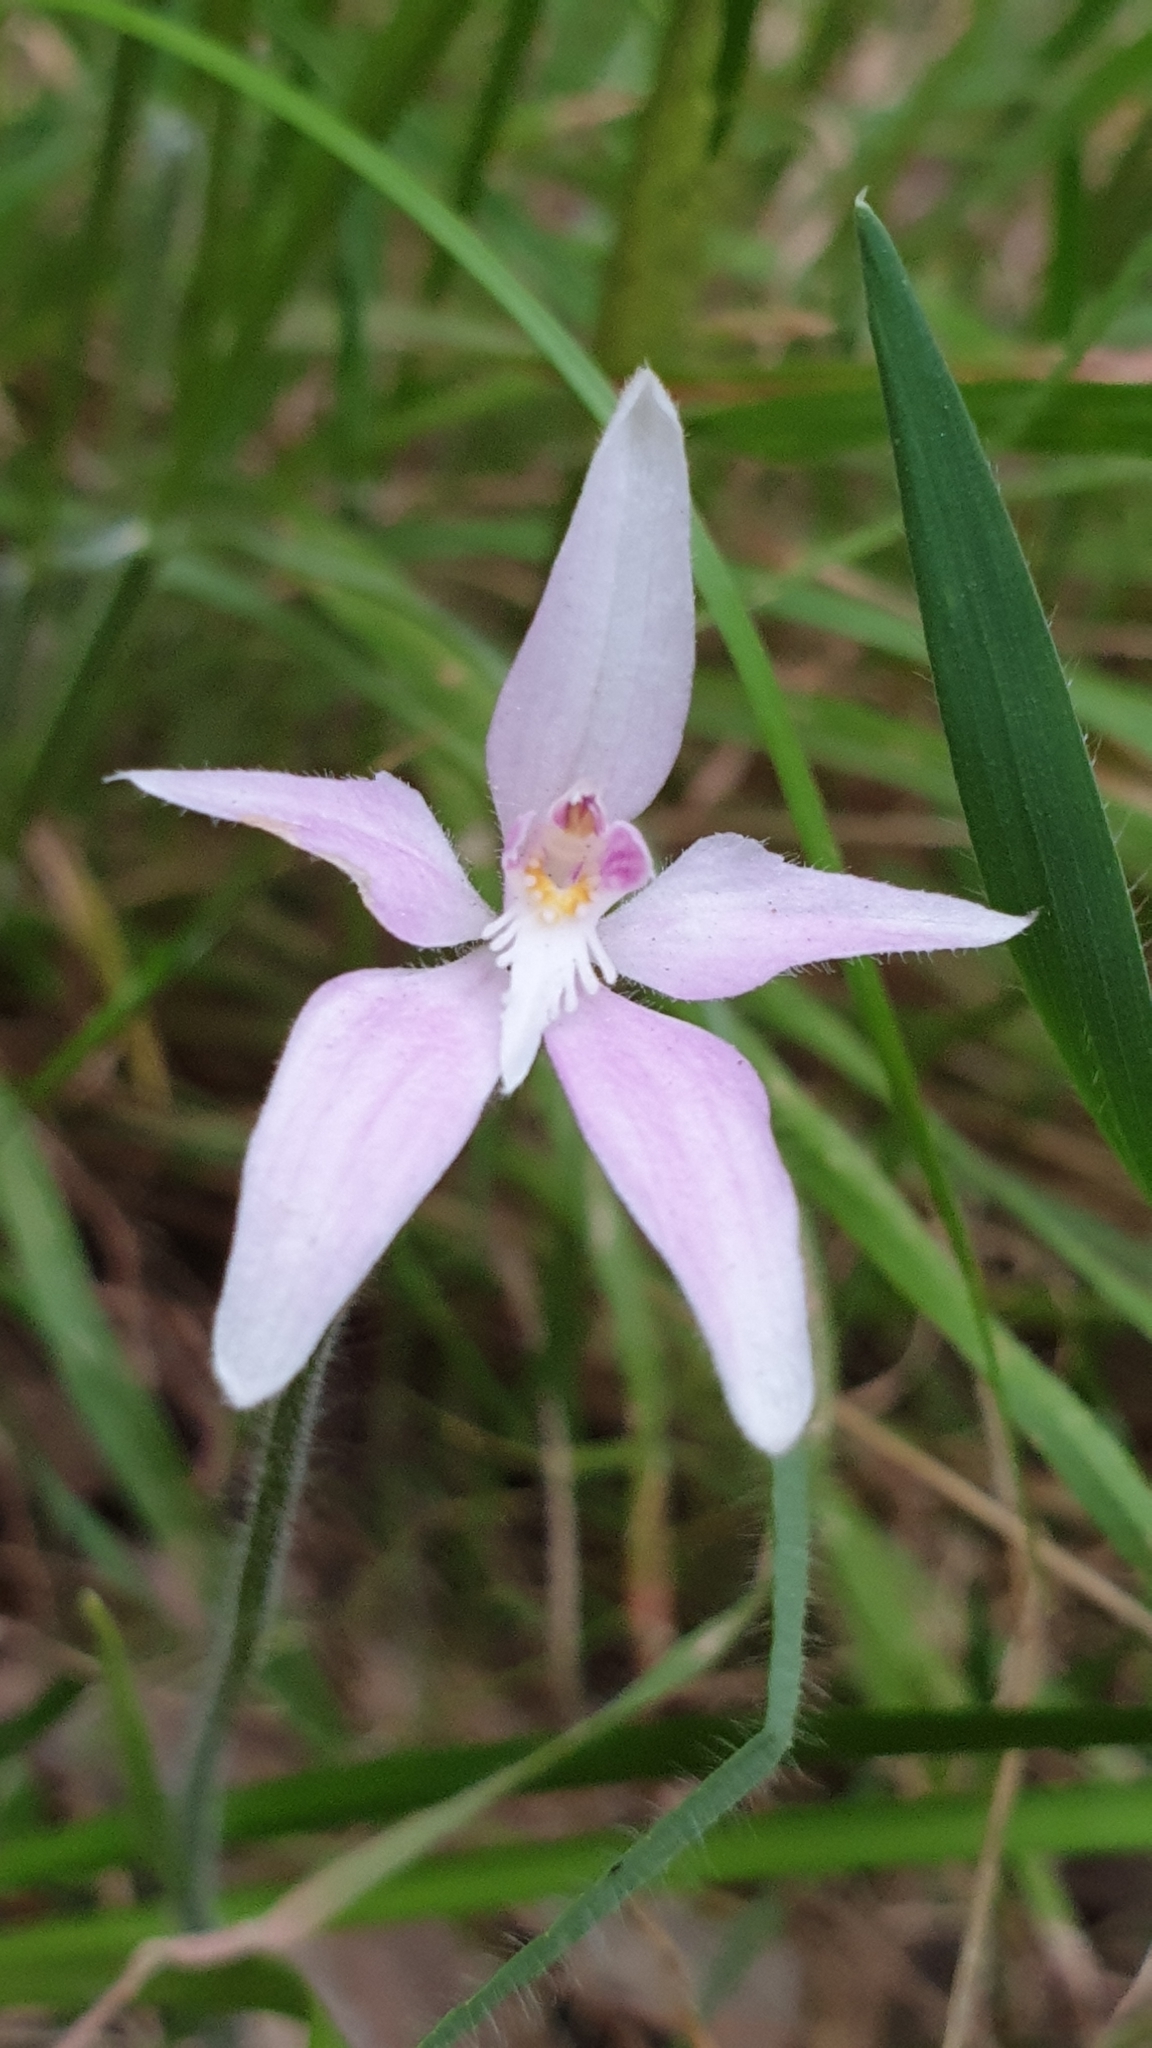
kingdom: Plantae
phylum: Tracheophyta
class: Liliopsida
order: Asparagales
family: Orchidaceae
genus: Caladenia
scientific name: Caladenia latifolia
